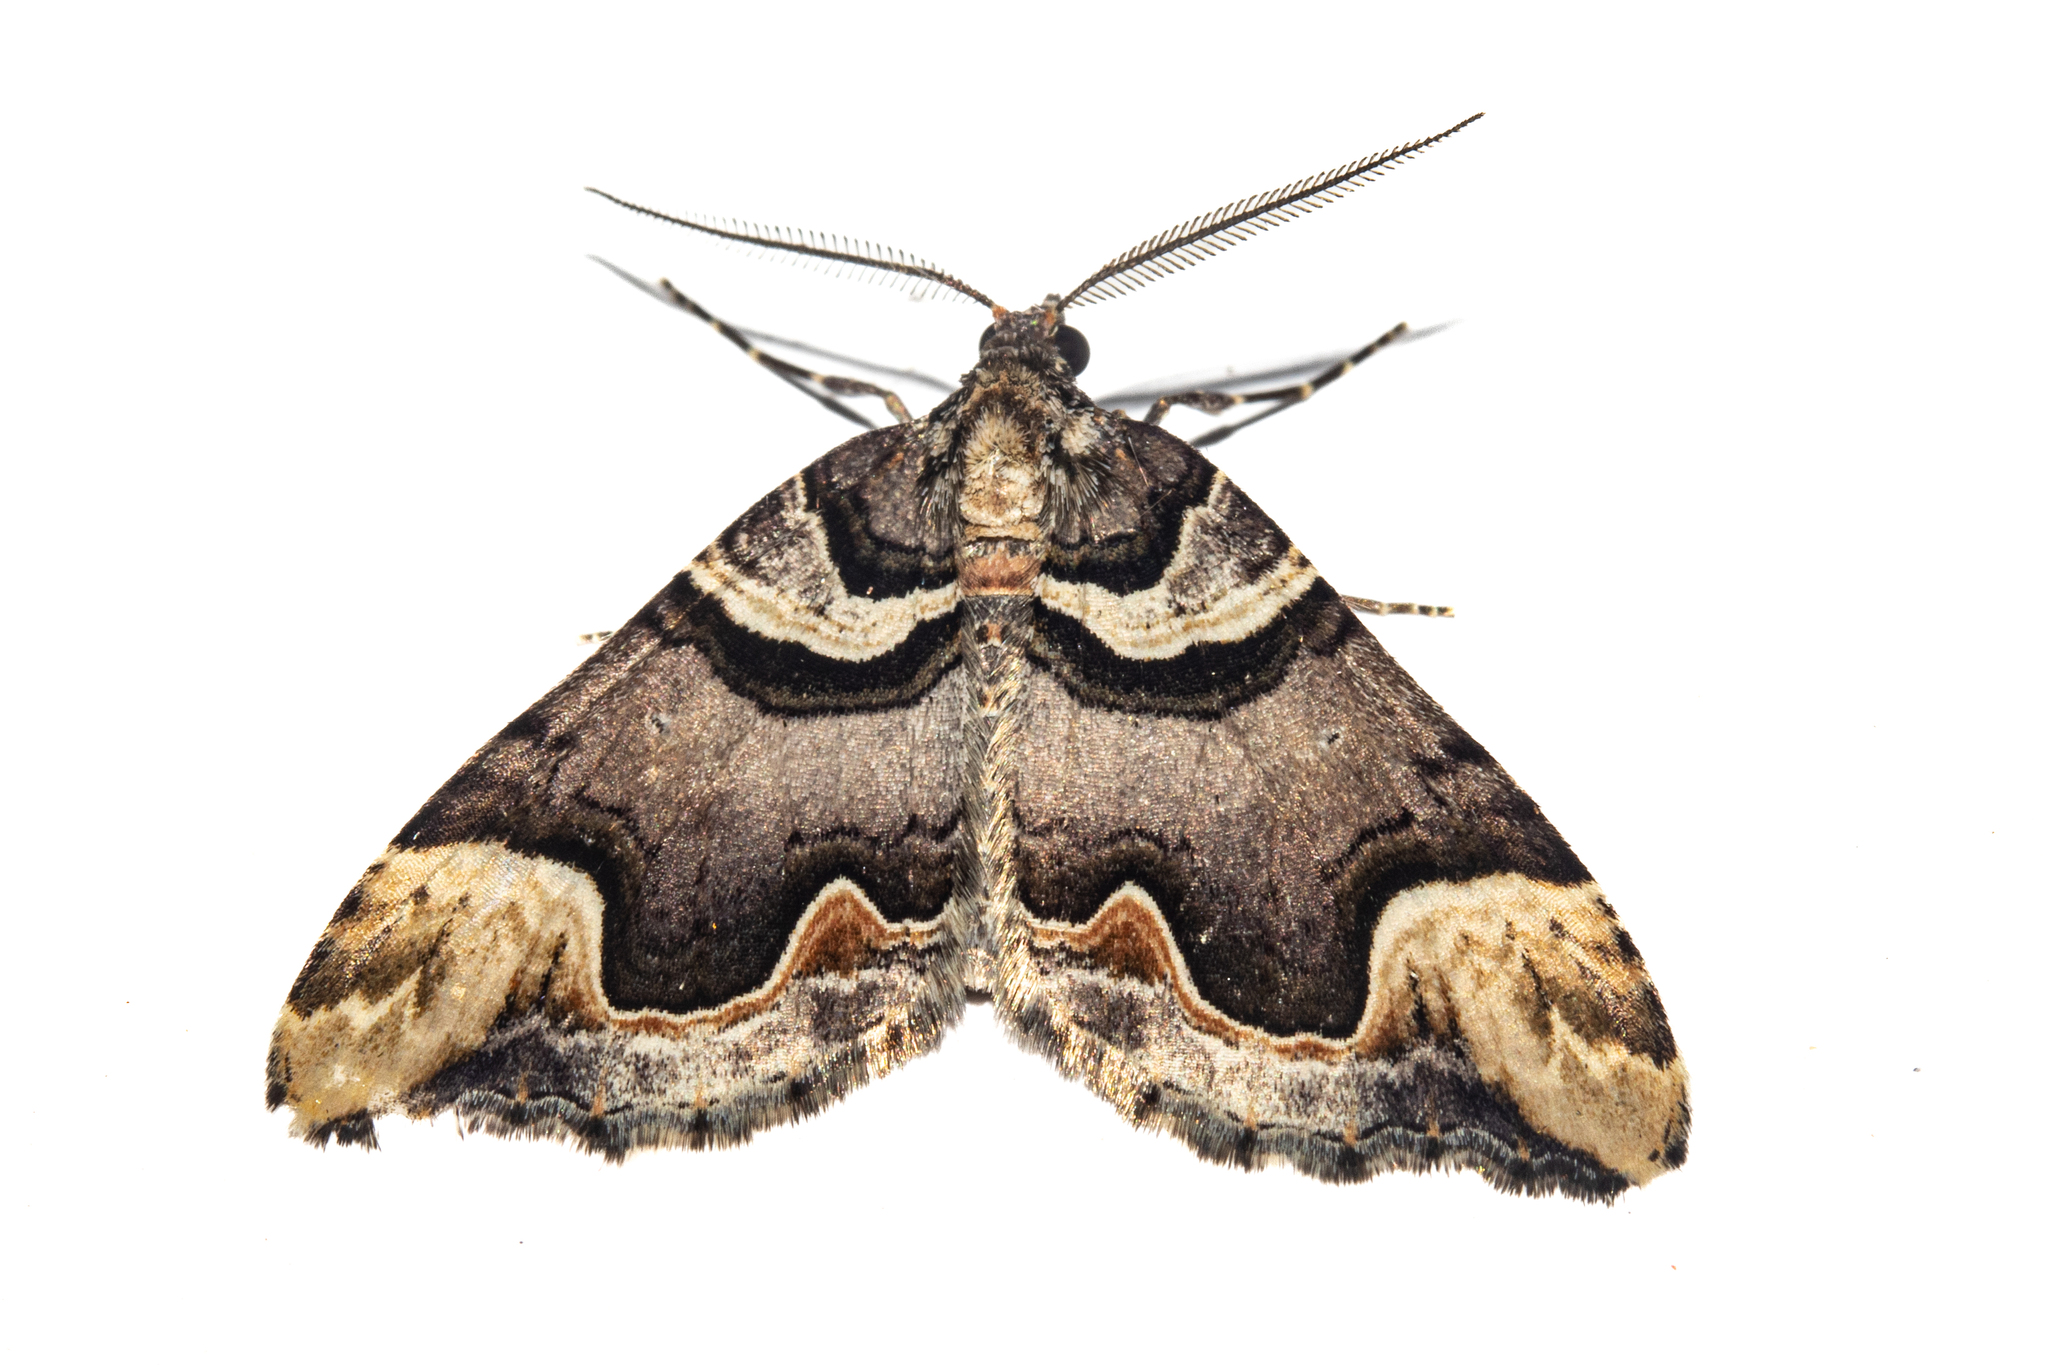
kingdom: Animalia
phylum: Arthropoda
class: Insecta
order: Lepidoptera
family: Geometridae
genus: Asaphodes
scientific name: Asaphodes chlamydota
